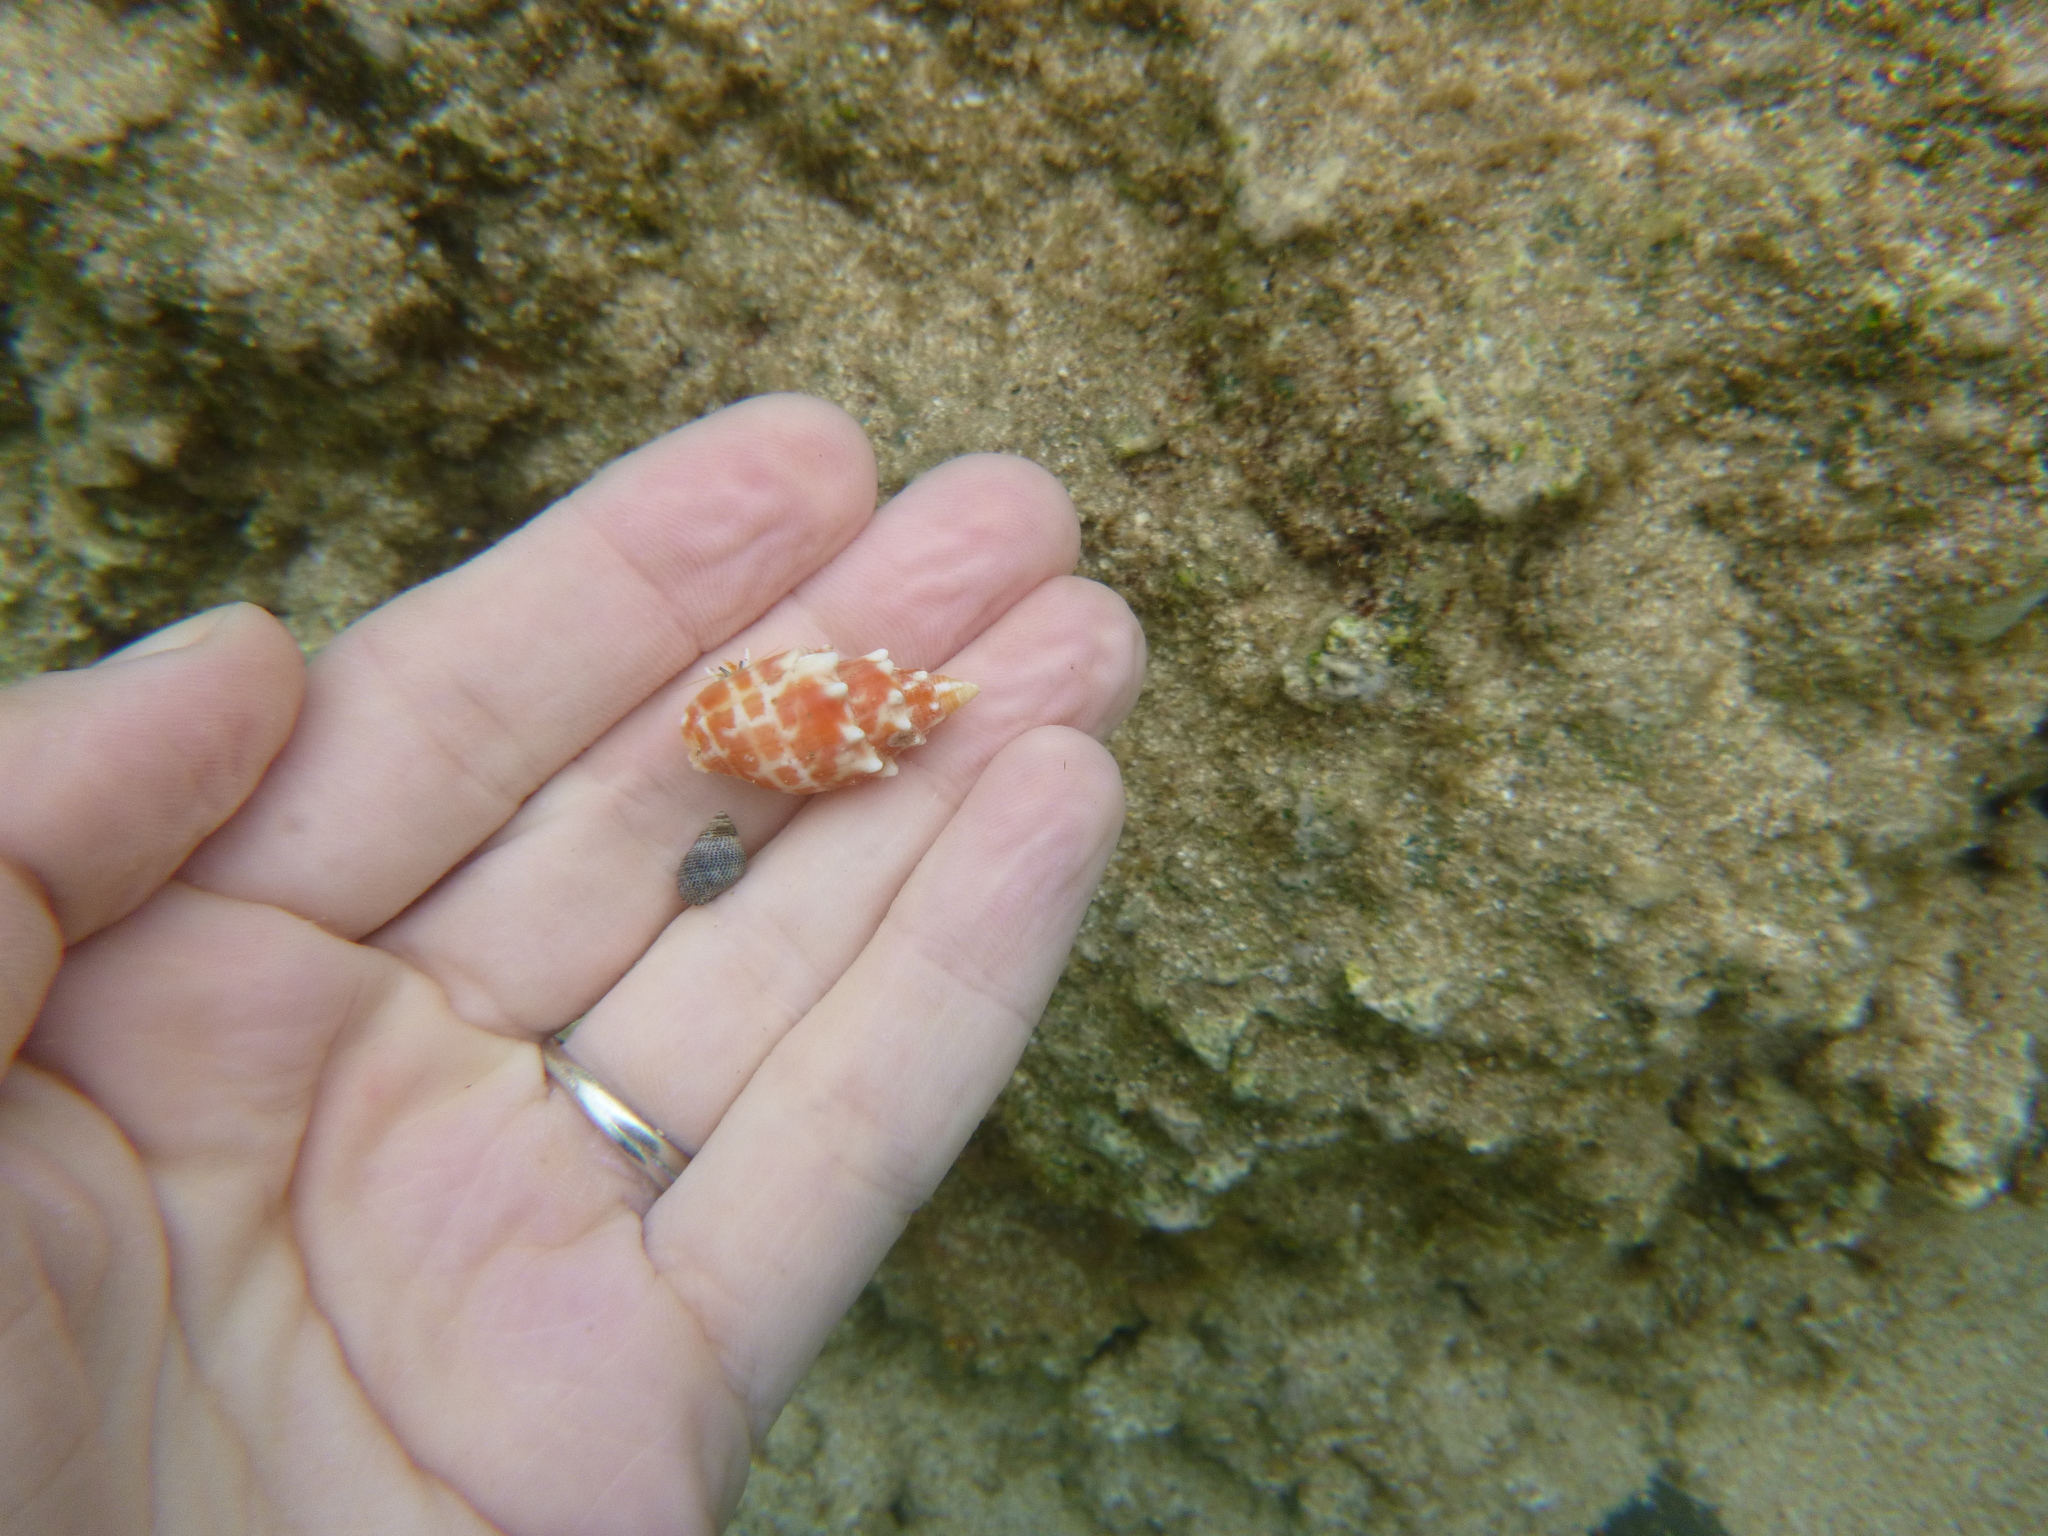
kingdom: Animalia
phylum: Mollusca
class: Gastropoda
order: Neogastropoda
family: Mitridae
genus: Mitra
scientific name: Mitra stictica
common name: Pontifical miter
